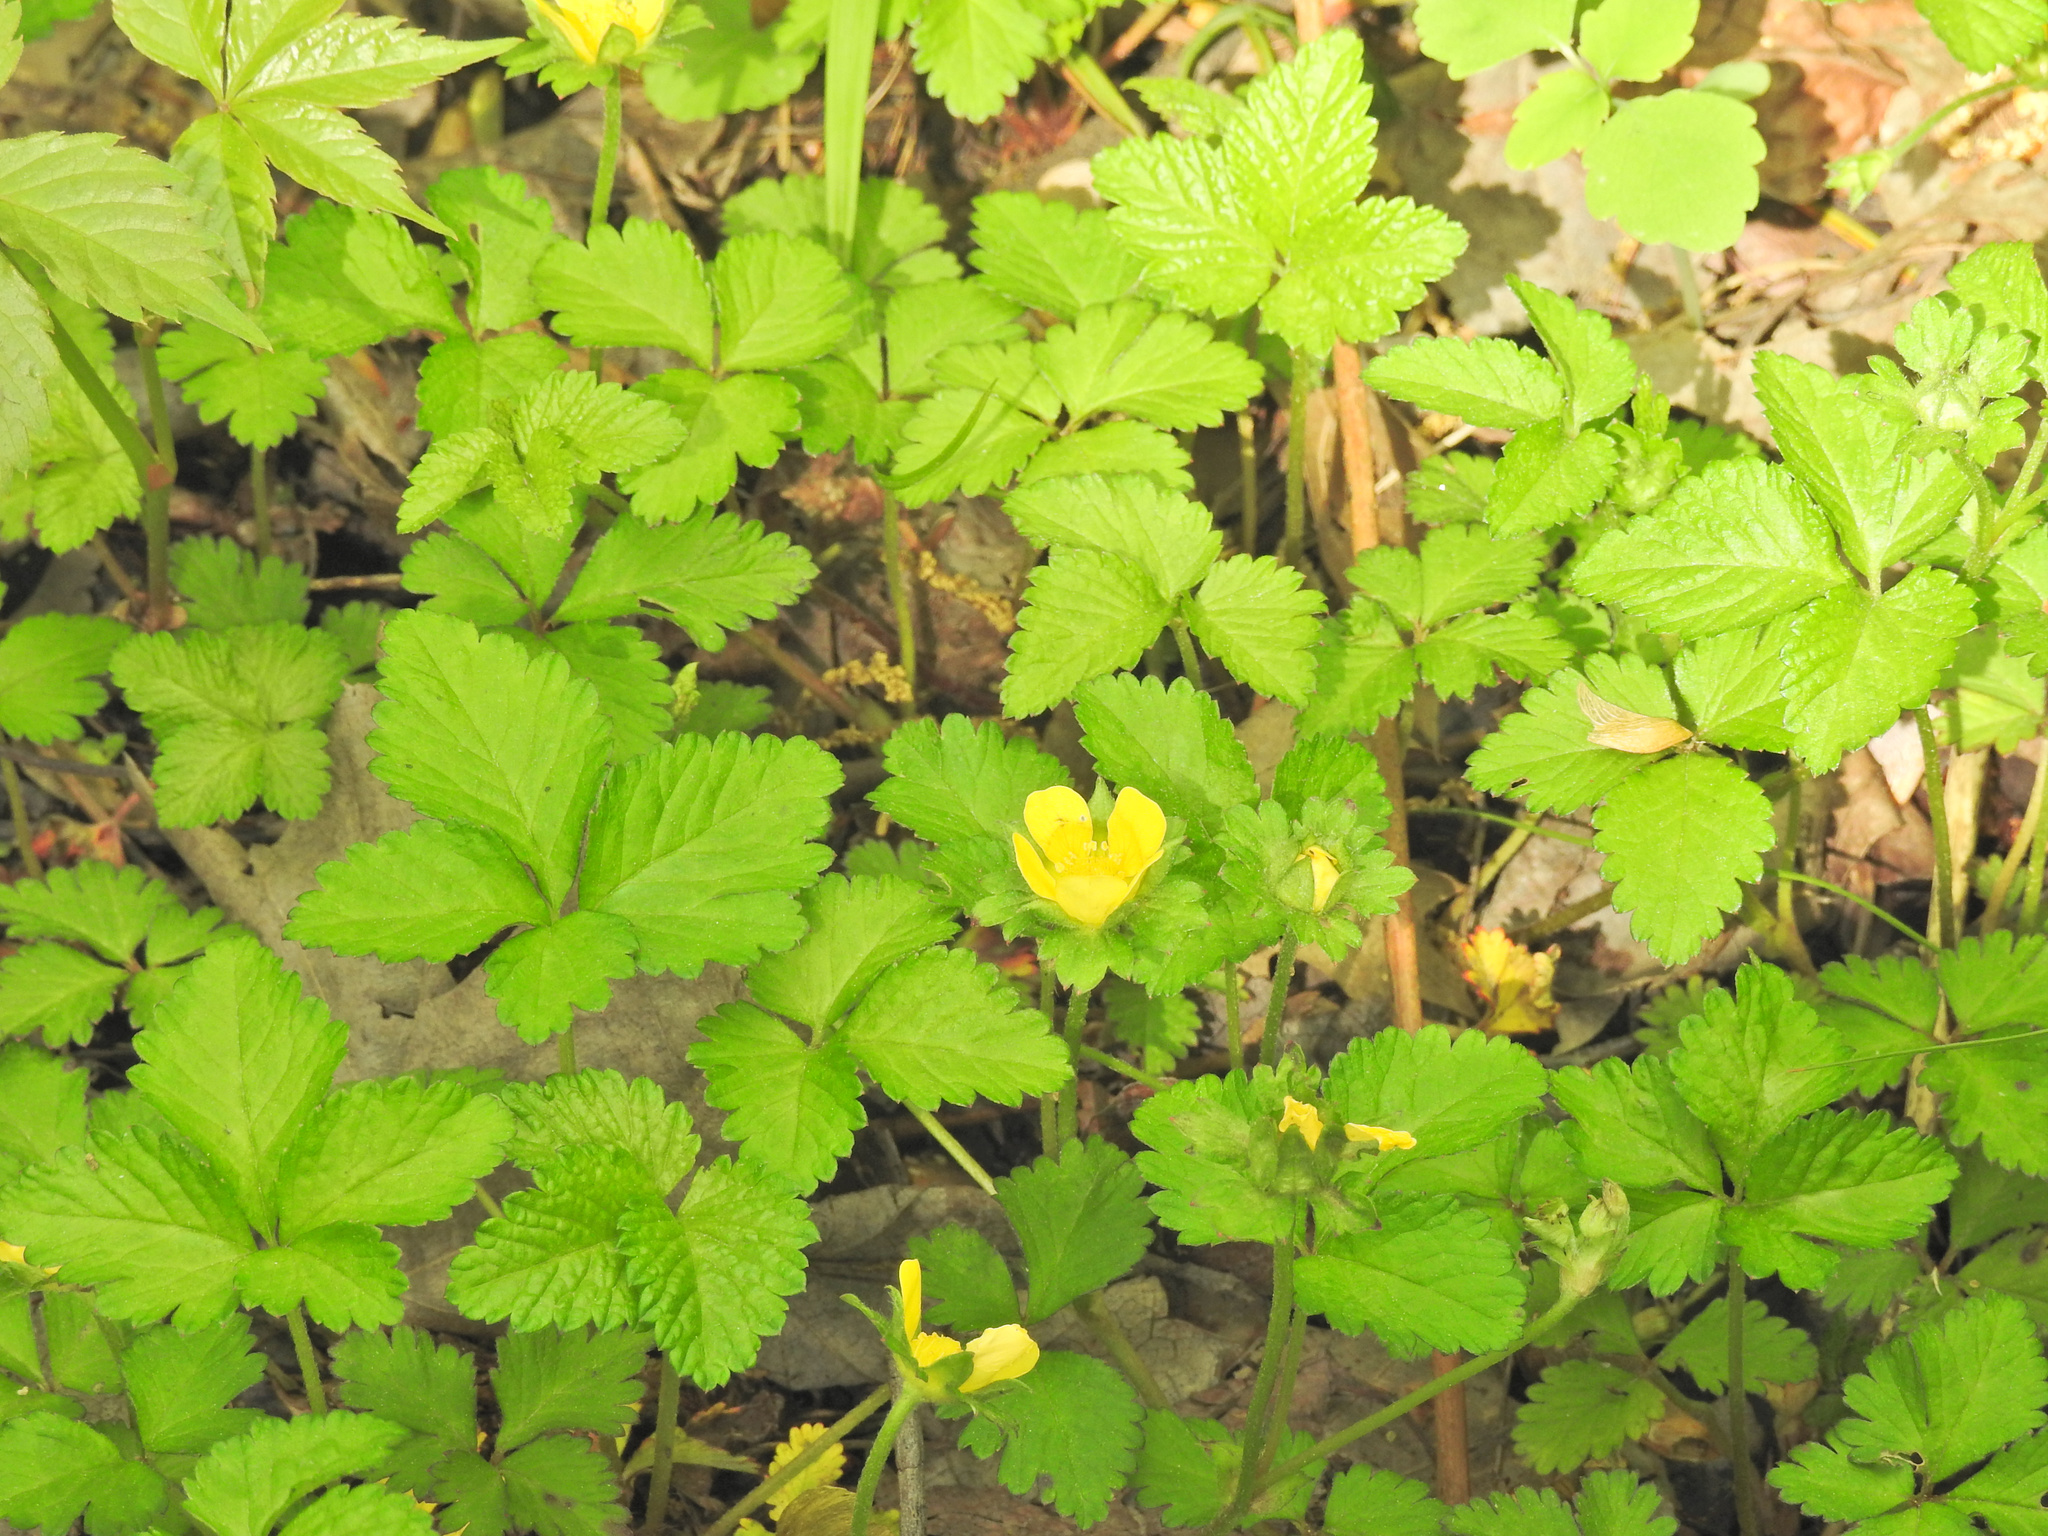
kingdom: Plantae
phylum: Tracheophyta
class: Magnoliopsida
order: Rosales
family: Rosaceae
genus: Potentilla
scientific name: Potentilla indica
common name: Yellow-flowered strawberry
